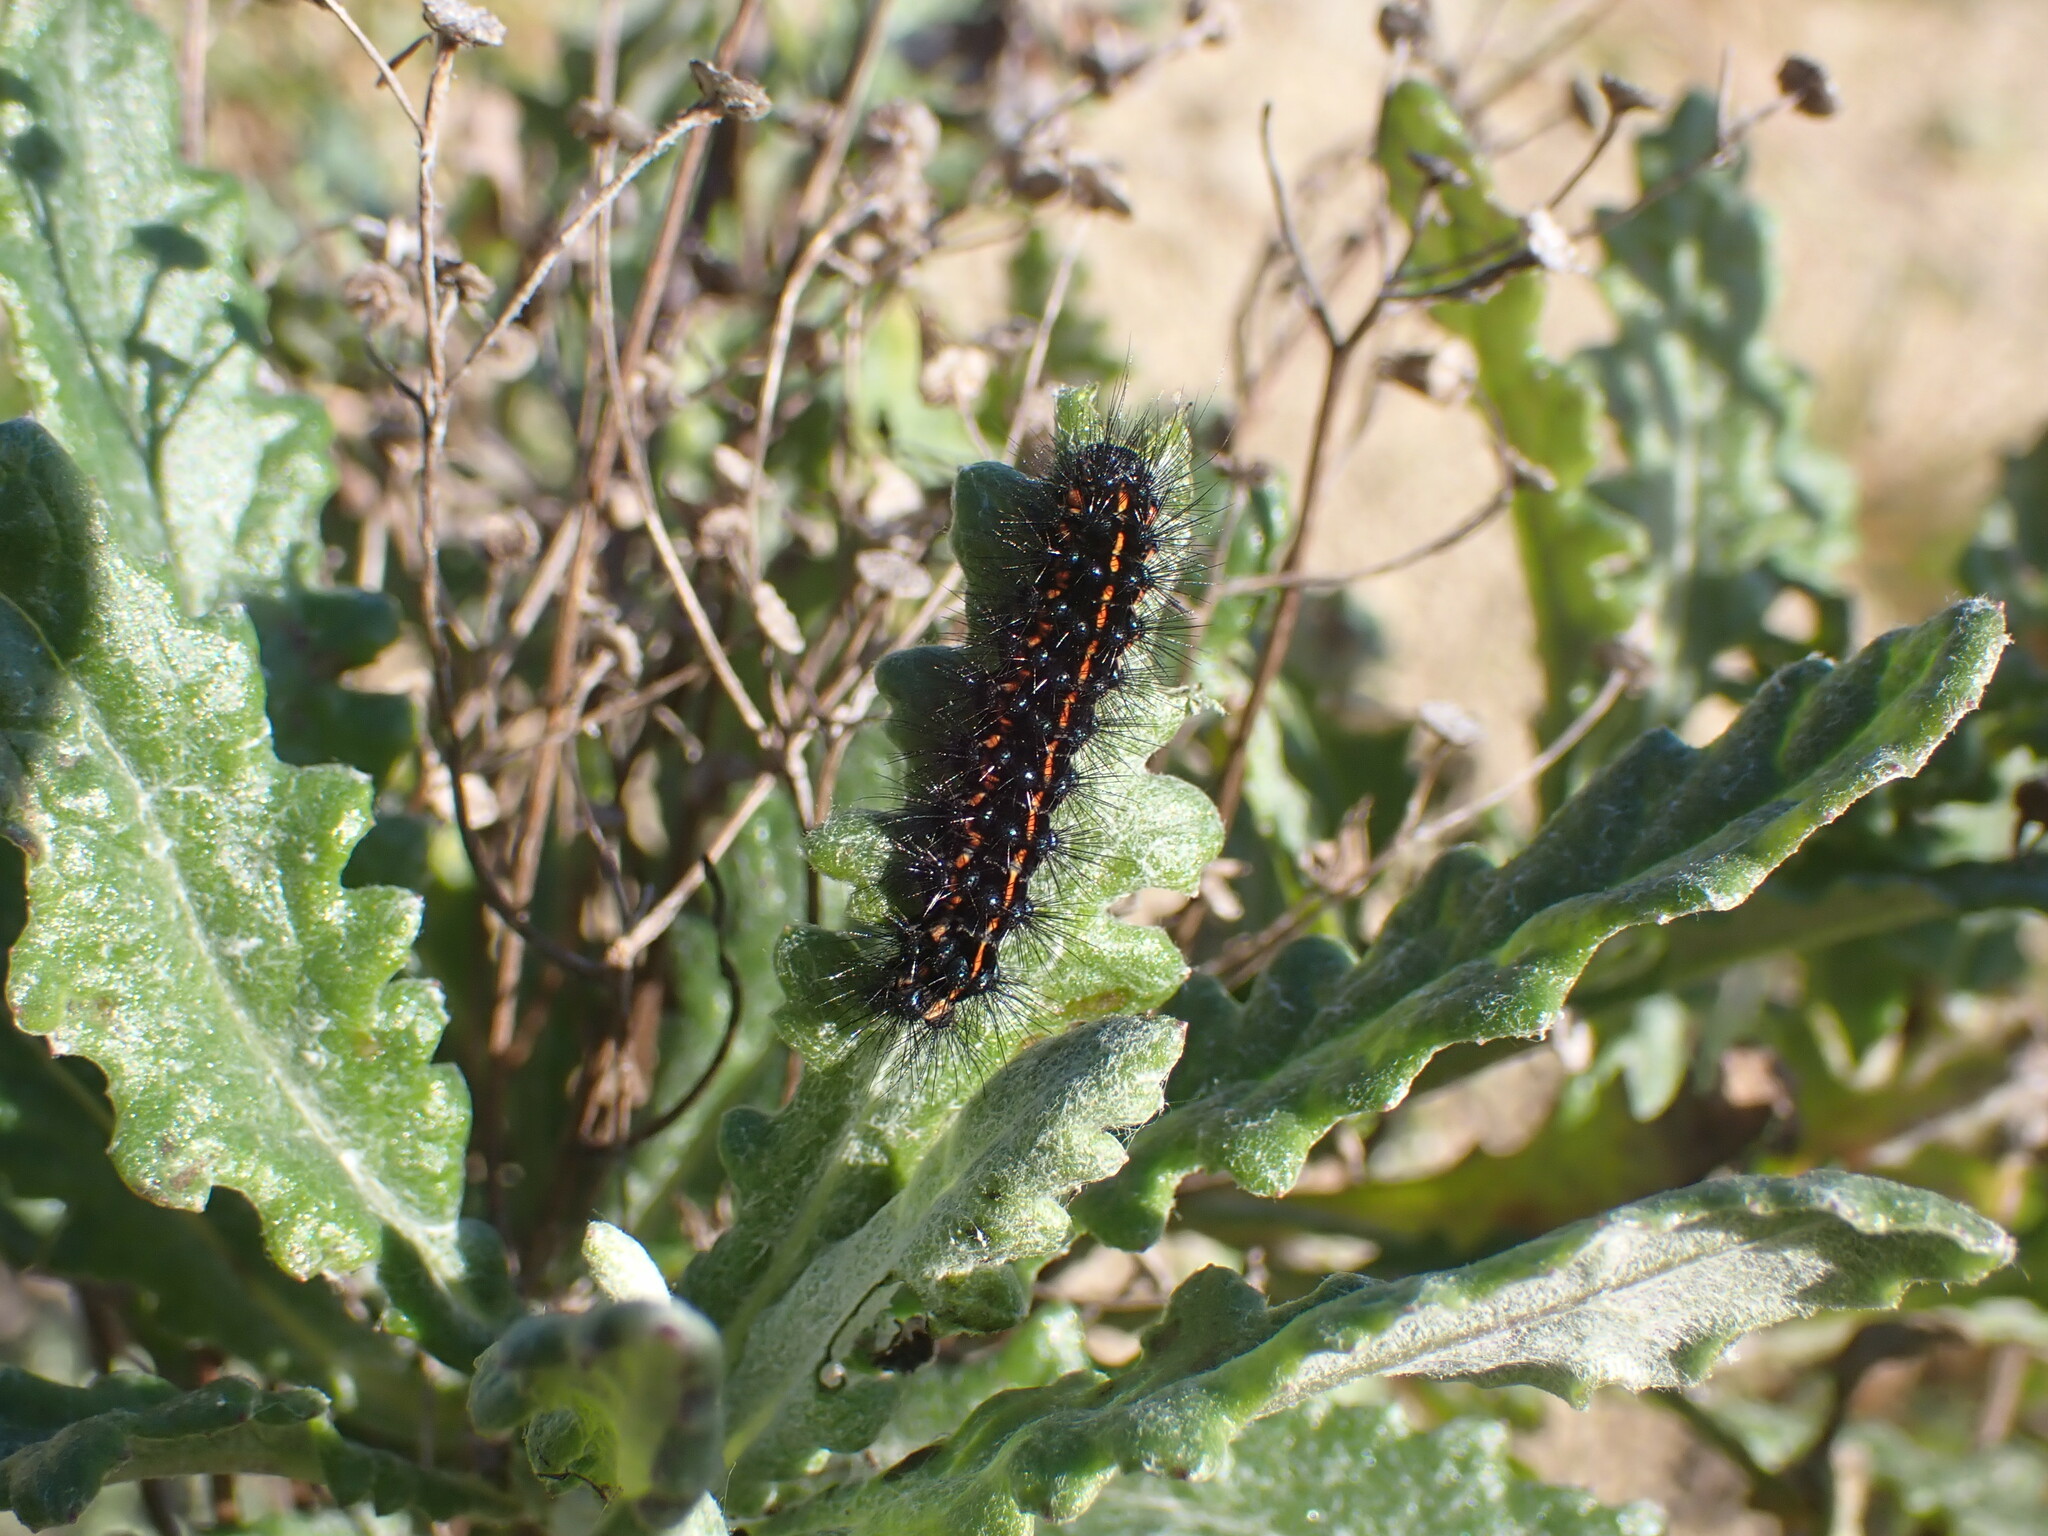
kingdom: Animalia
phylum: Arthropoda
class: Insecta
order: Lepidoptera
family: Erebidae
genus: Nyctemera
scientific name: Nyctemera annulatum
